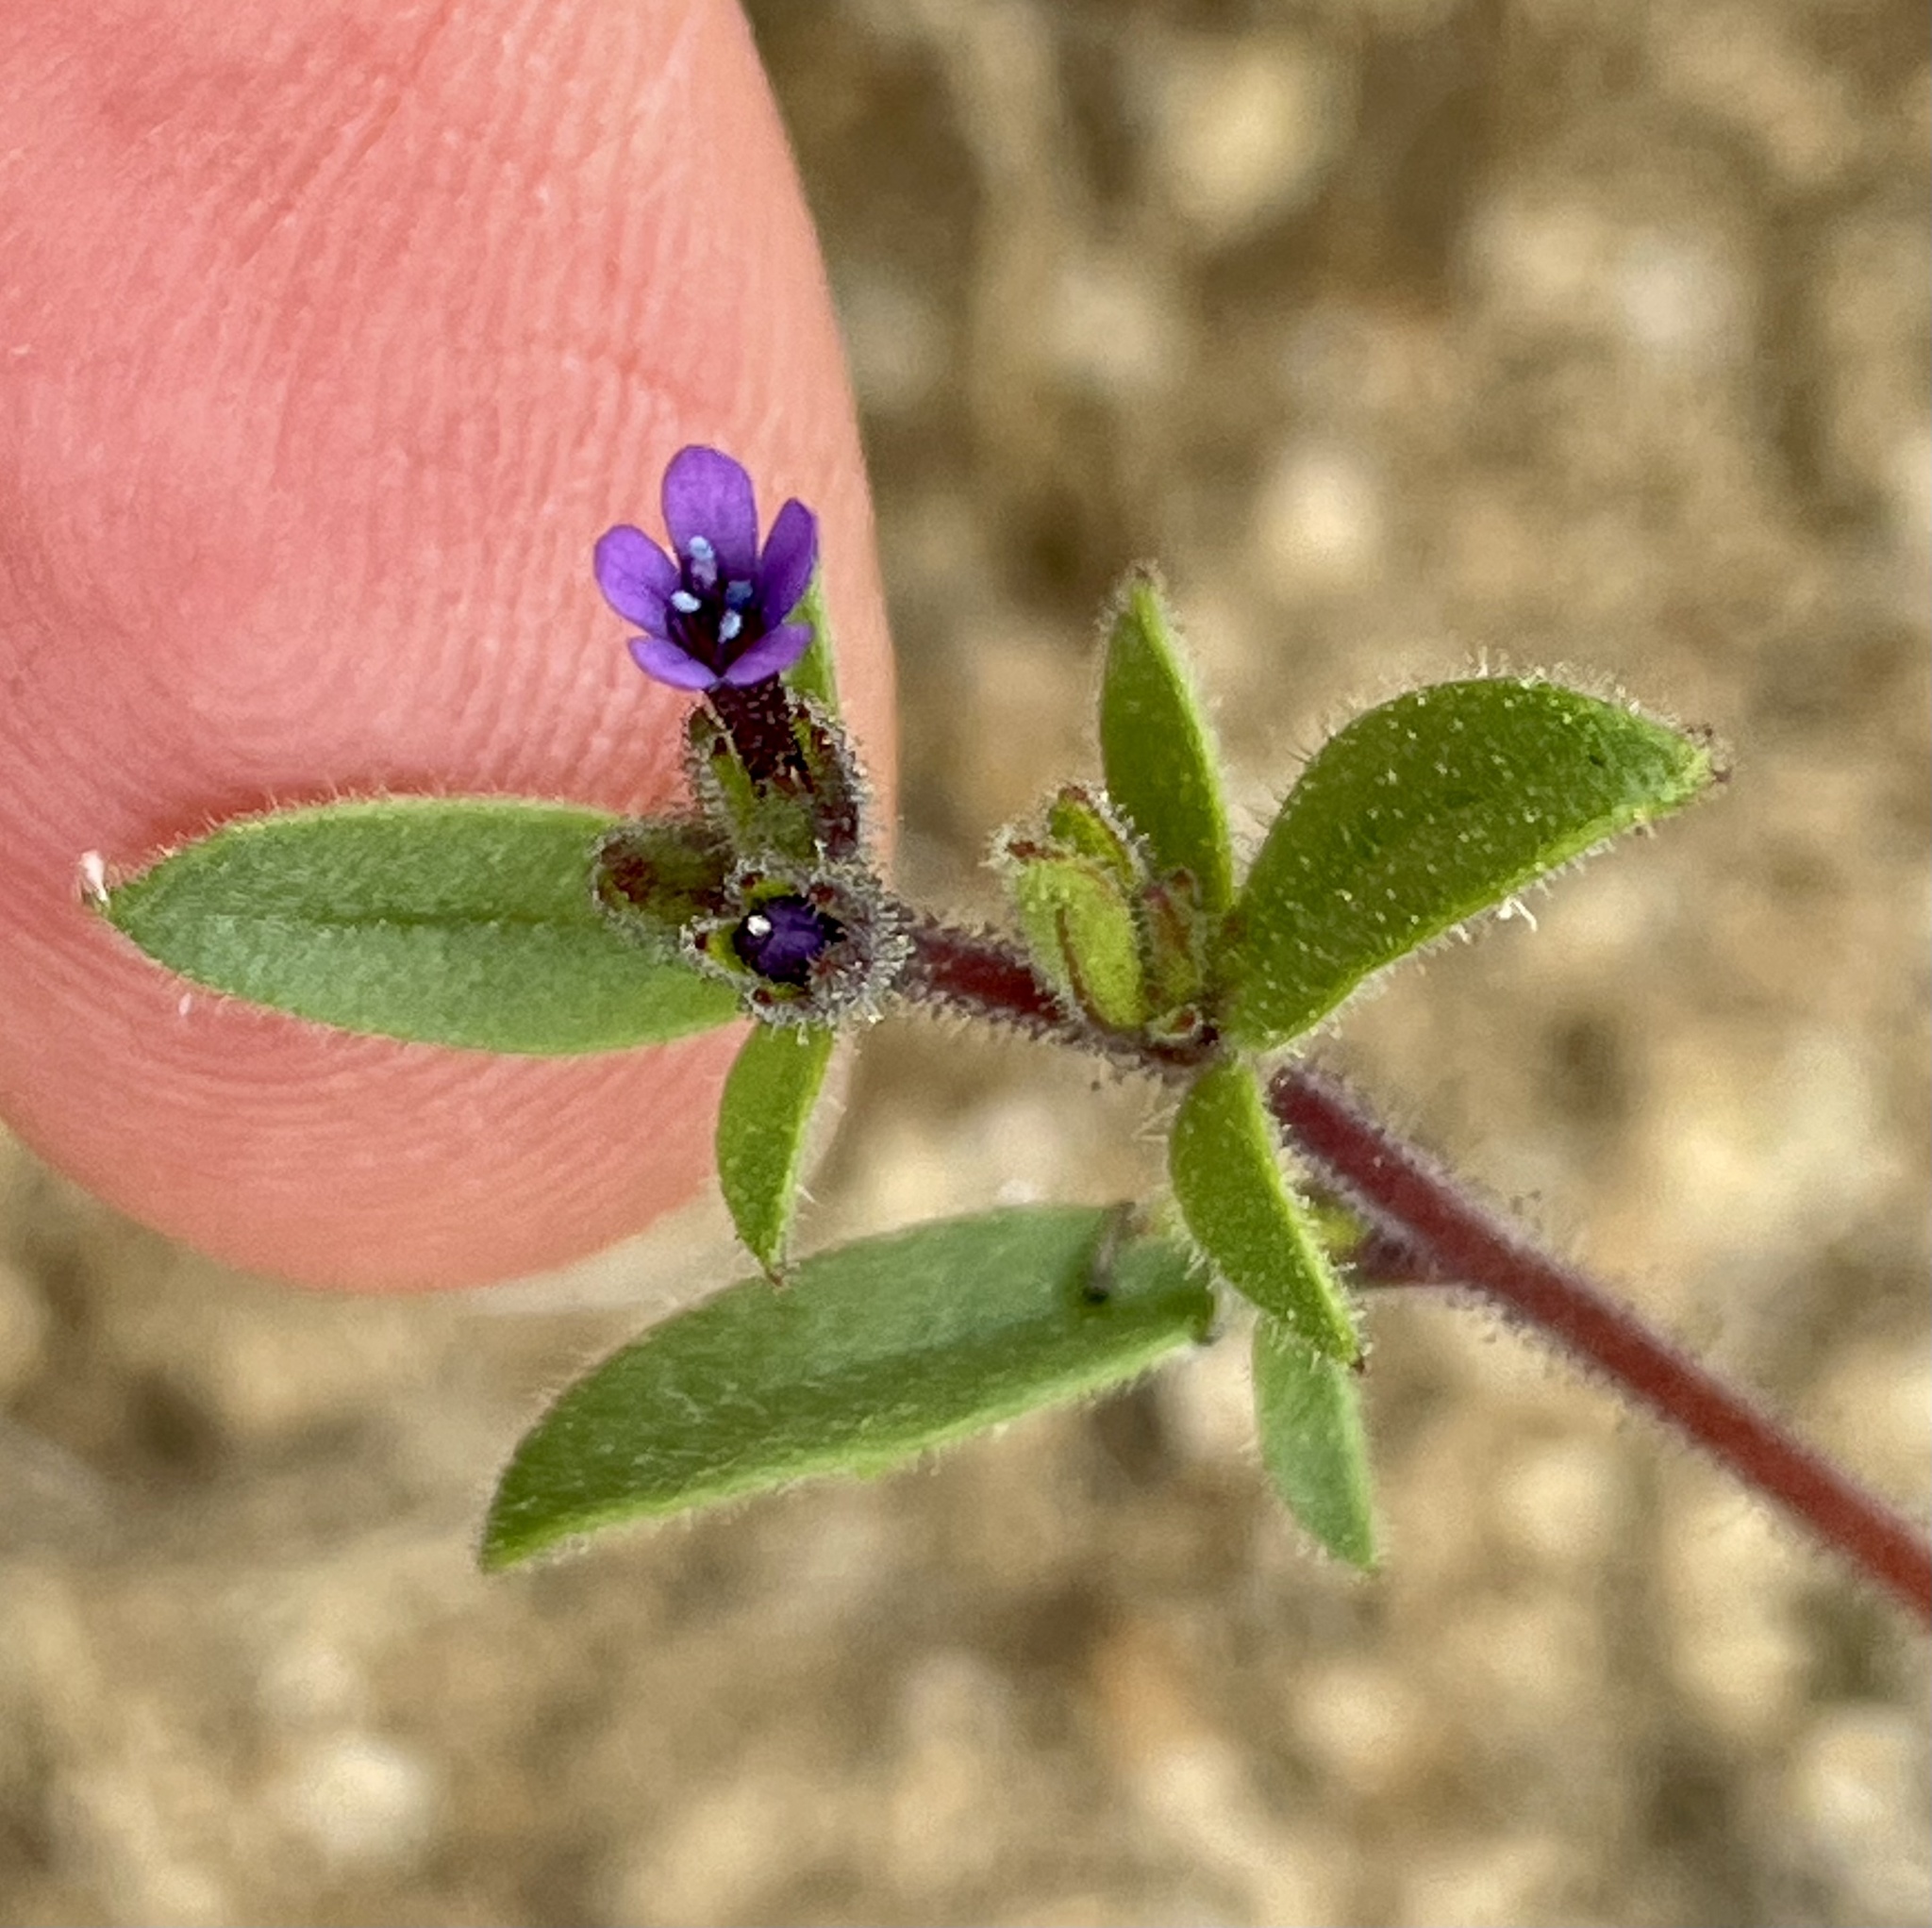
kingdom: Plantae
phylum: Tracheophyta
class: Magnoliopsida
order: Ericales
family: Polemoniaceae
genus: Allophyllum
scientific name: Allophyllum gilioides
